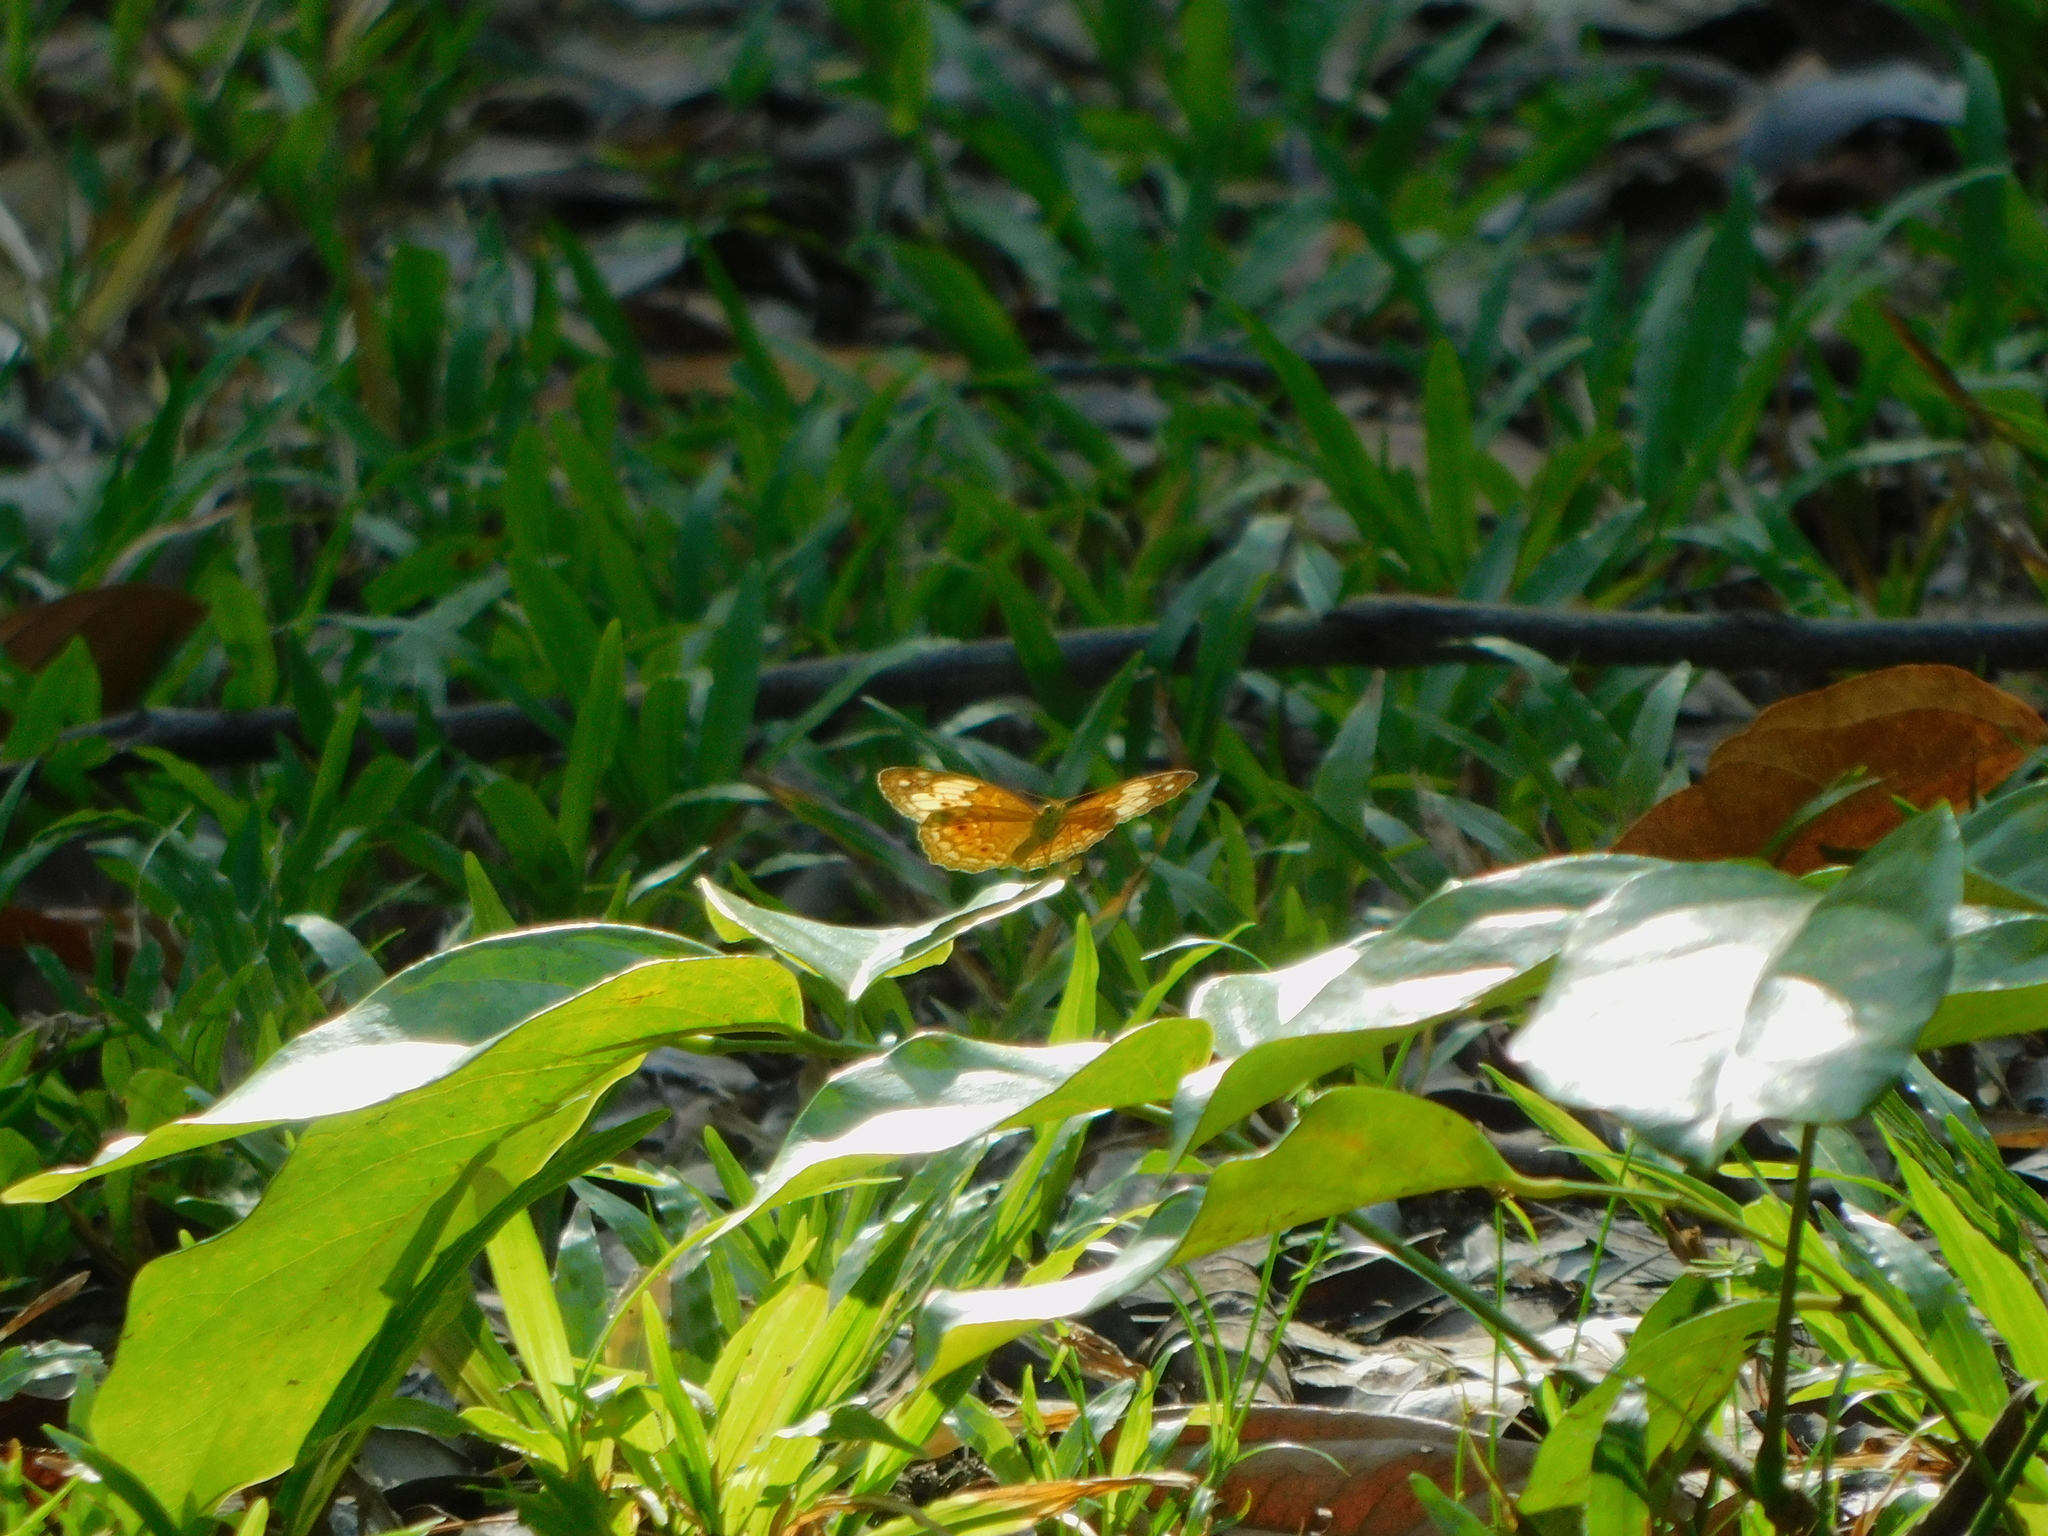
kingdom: Animalia
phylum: Arthropoda
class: Insecta
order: Lepidoptera
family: Nymphalidae
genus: Cupha
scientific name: Cupha erymanthis
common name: Rustic
